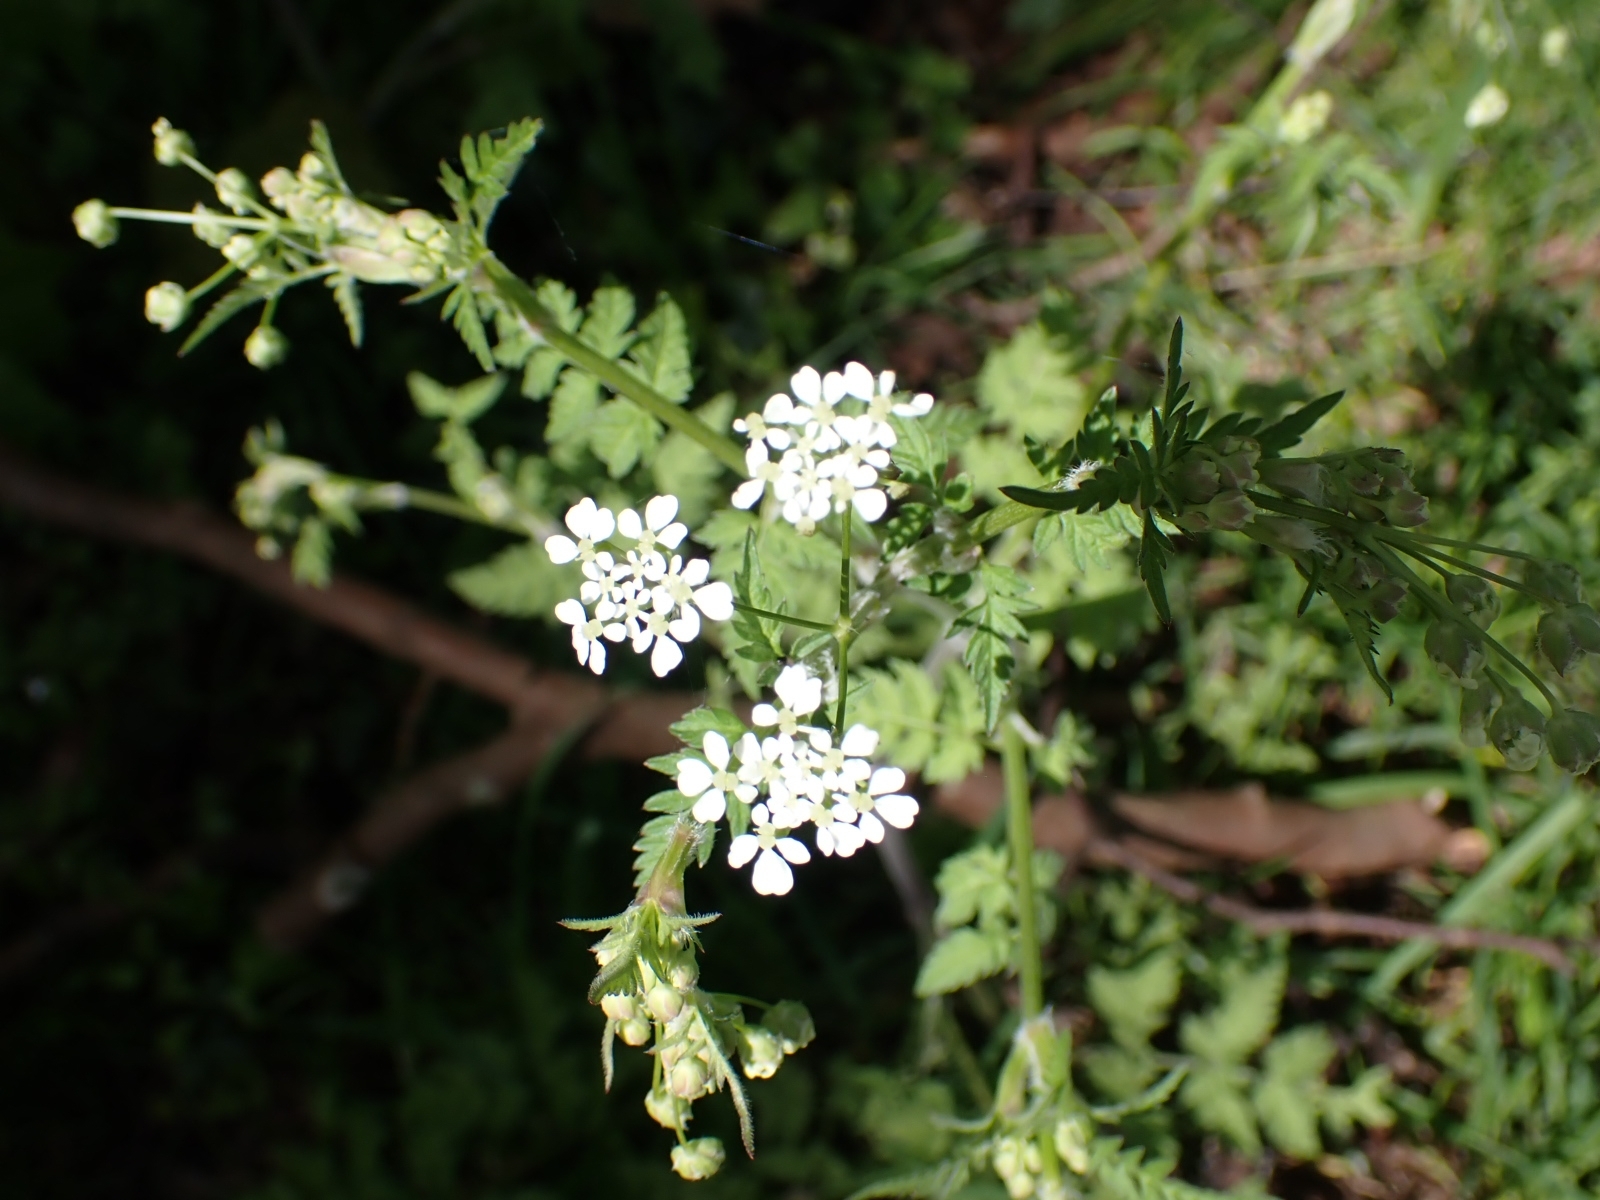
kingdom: Plantae
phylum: Tracheophyta
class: Magnoliopsida
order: Apiales
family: Apiaceae
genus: Anthriscus
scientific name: Anthriscus sylvestris
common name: Cow parsley
